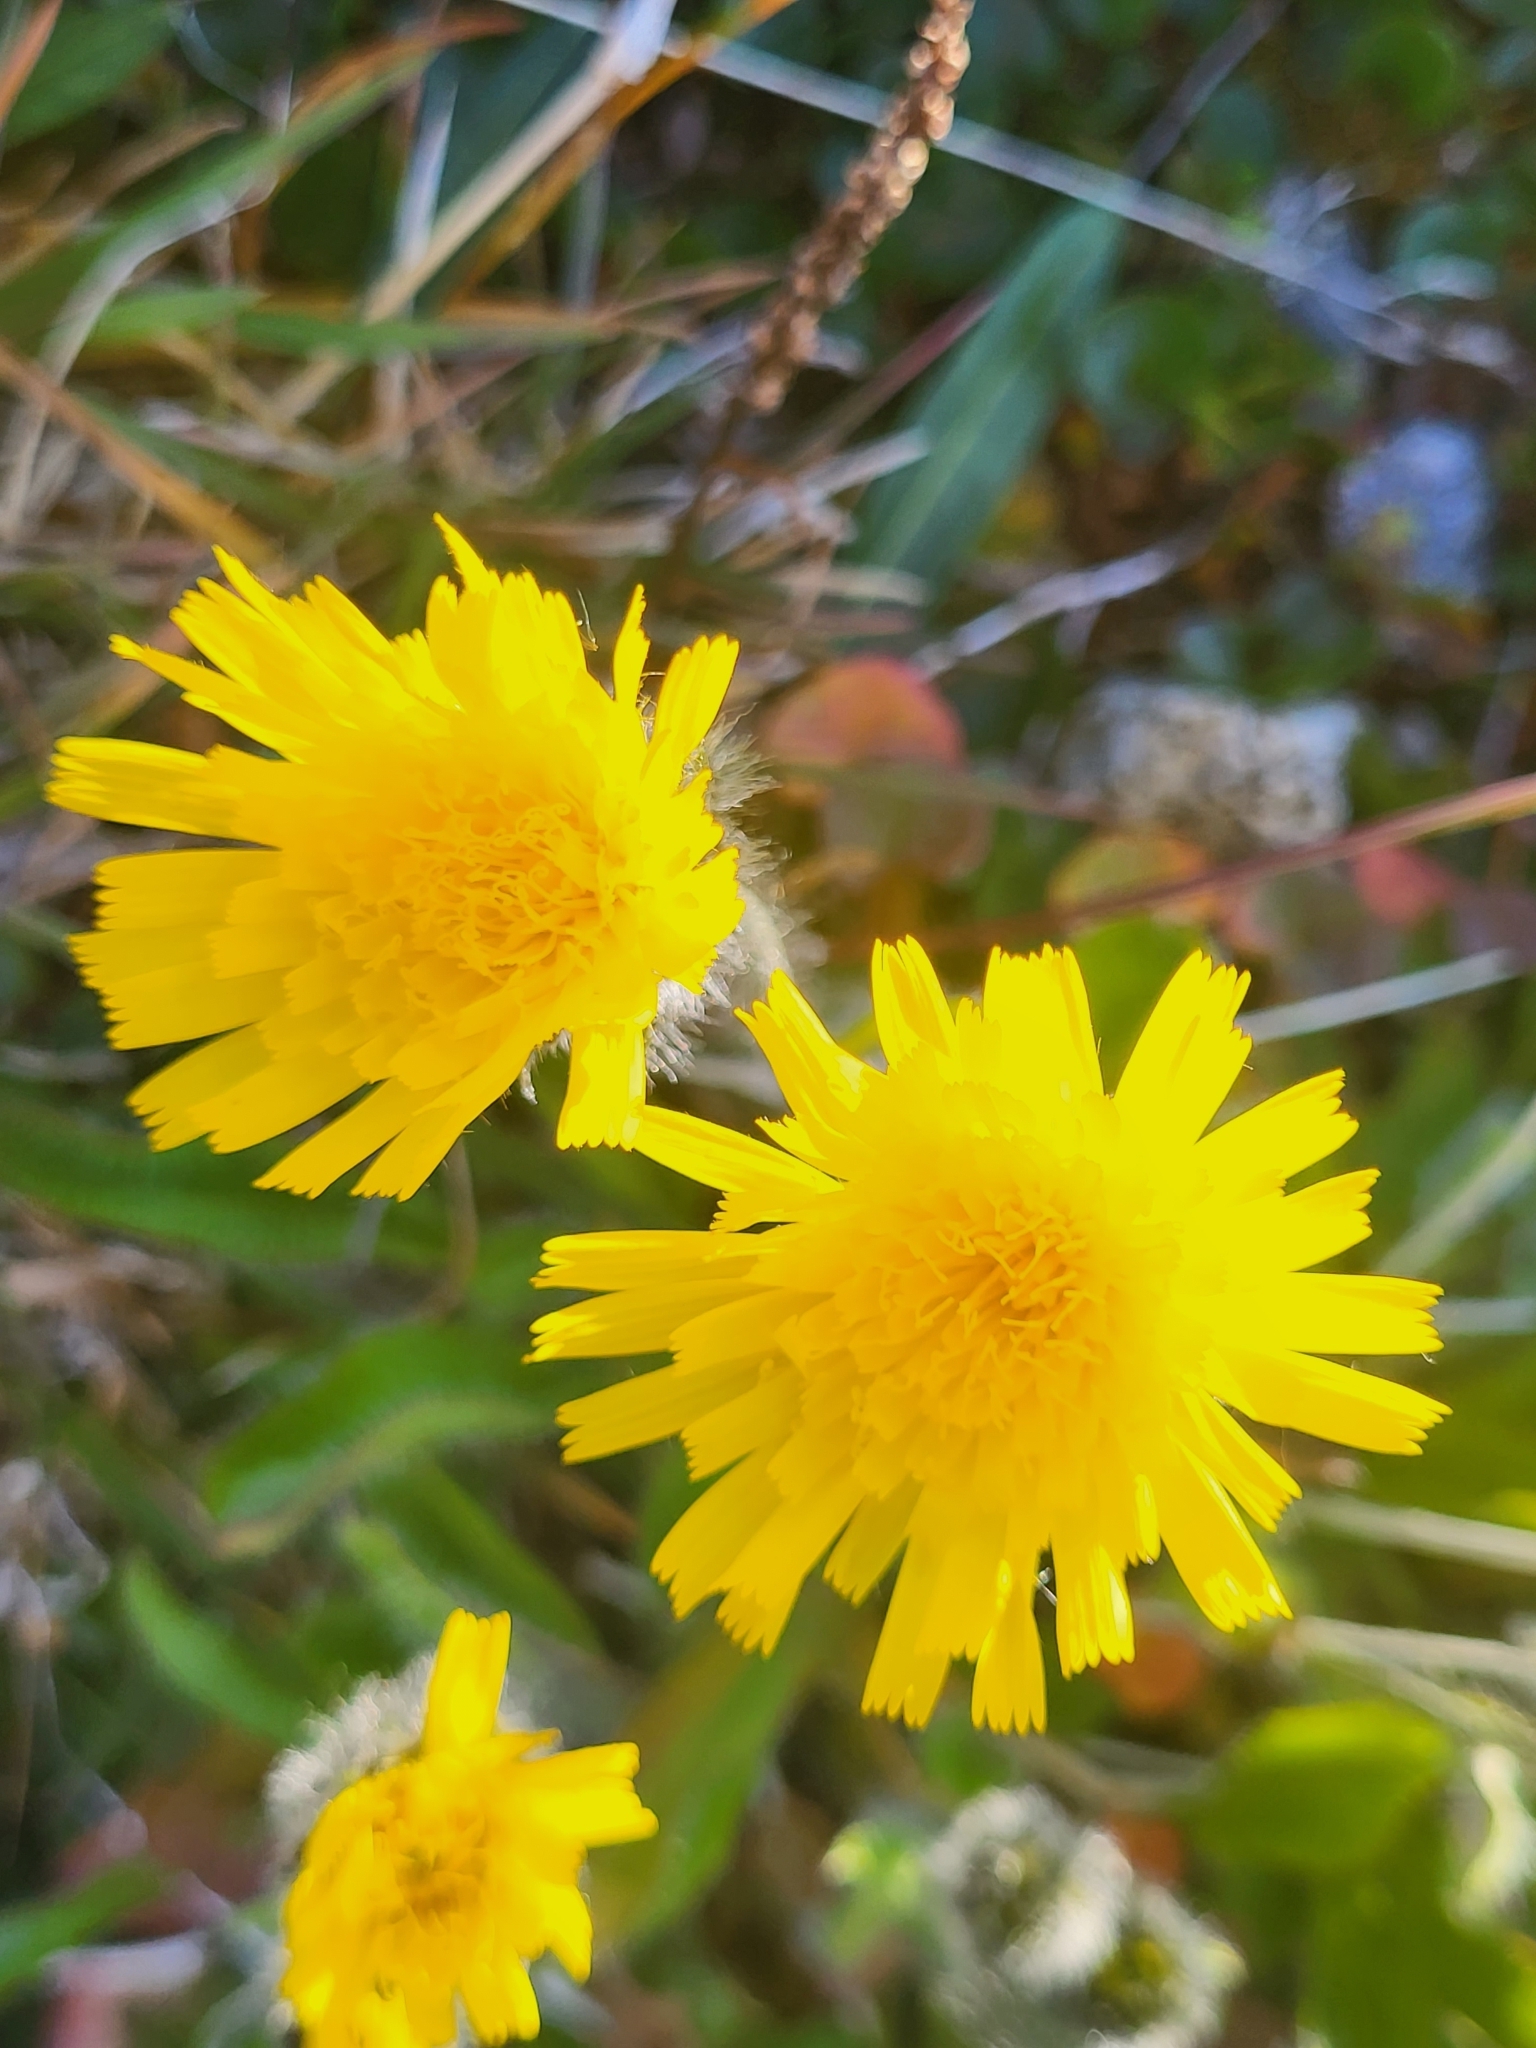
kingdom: Plantae
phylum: Tracheophyta
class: Magnoliopsida
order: Asterales
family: Asteraceae
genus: Hieracium
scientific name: Hieracium alpinum
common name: Alpine hawkweed
